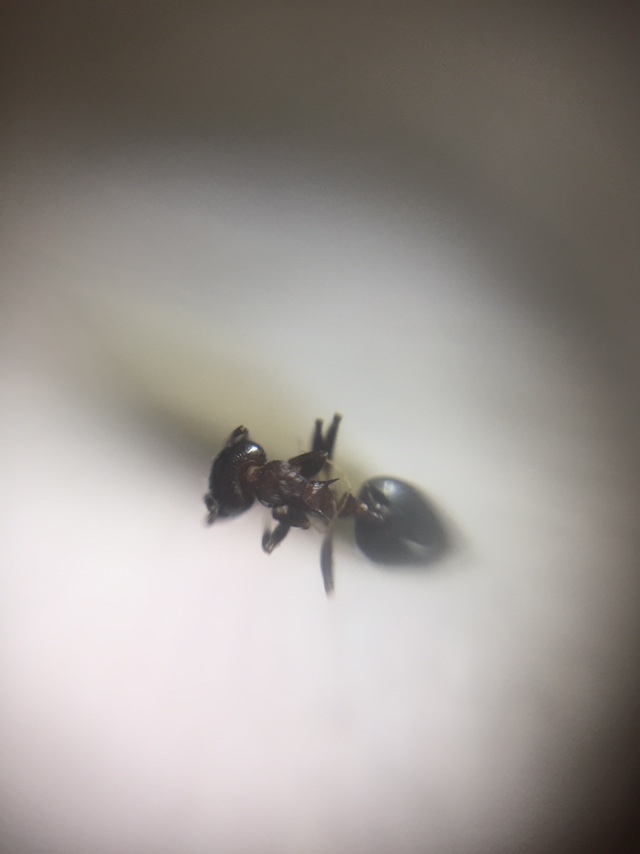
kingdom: Animalia
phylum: Arthropoda
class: Insecta
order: Hymenoptera
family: Formicidae
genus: Crematogaster
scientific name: Crematogaster subnuda
